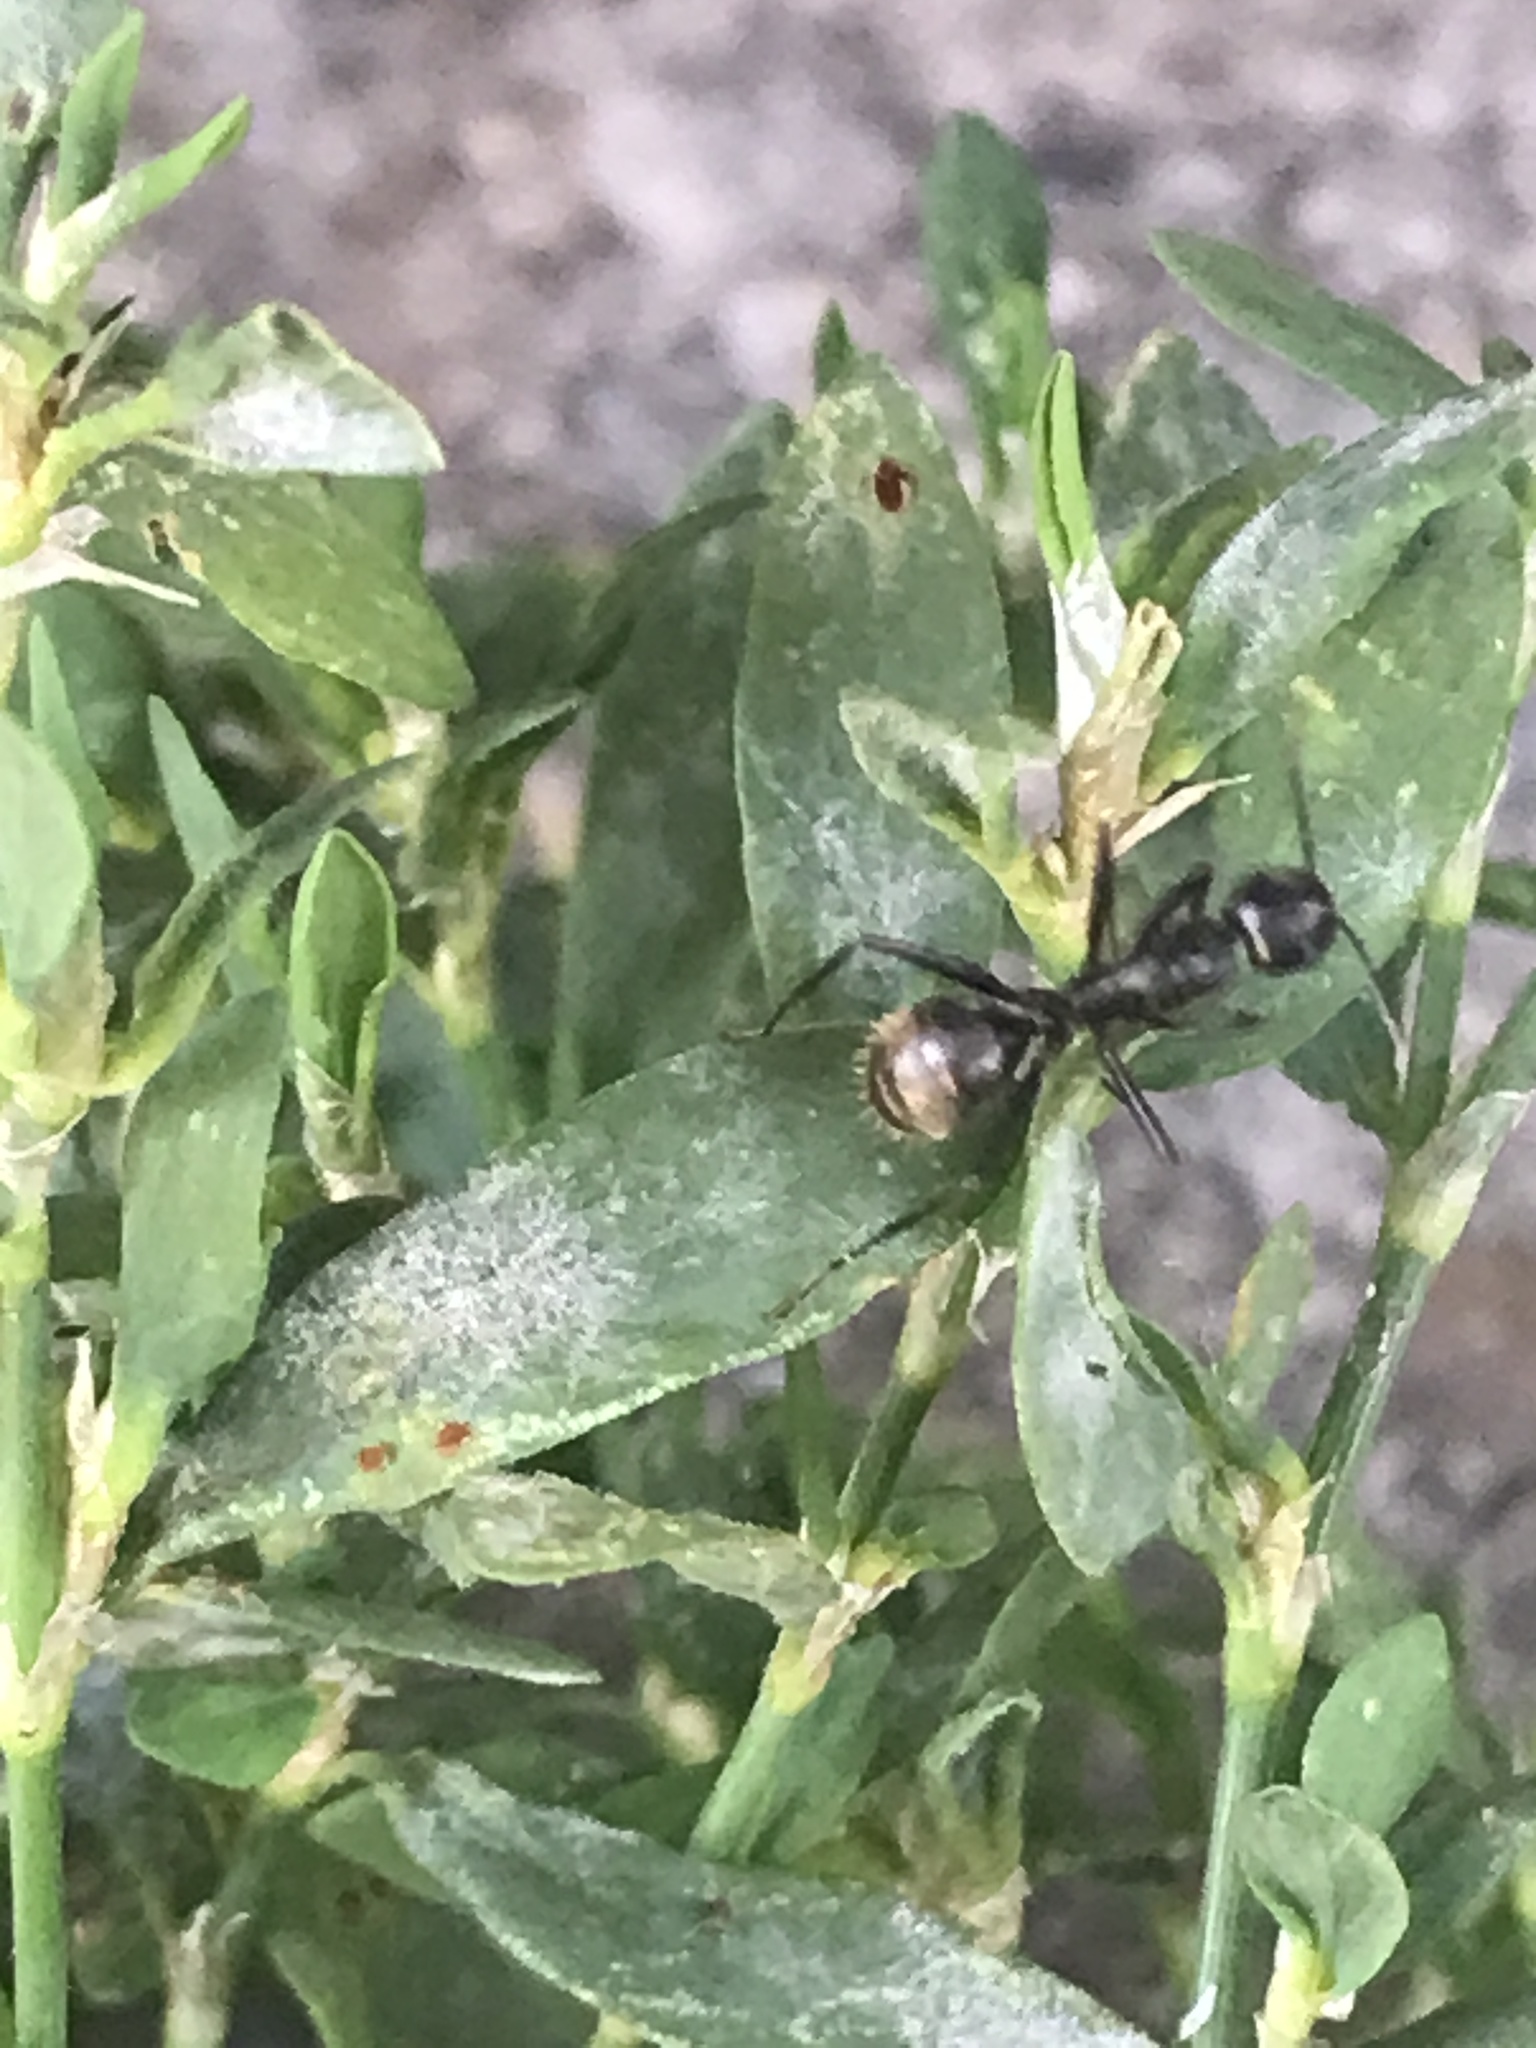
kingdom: Animalia
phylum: Arthropoda
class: Insecta
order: Hymenoptera
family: Formicidae
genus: Camponotus
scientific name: Camponotus pennsylvanicus
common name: Black carpenter ant
